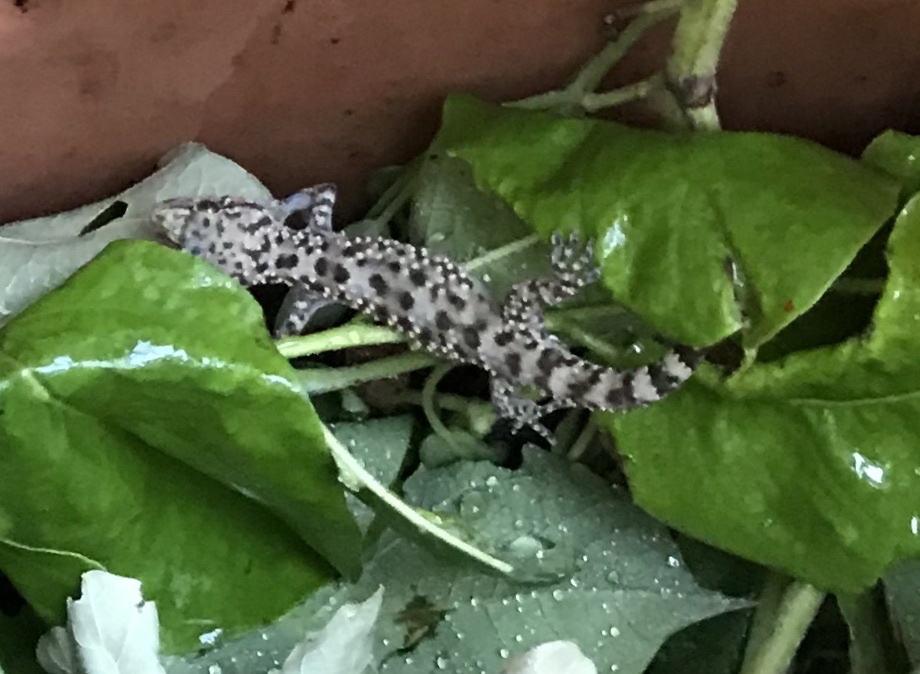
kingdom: Animalia
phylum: Chordata
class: Squamata
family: Gekkonidae
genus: Hemidactylus
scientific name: Hemidactylus turcicus
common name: Turkish gecko
